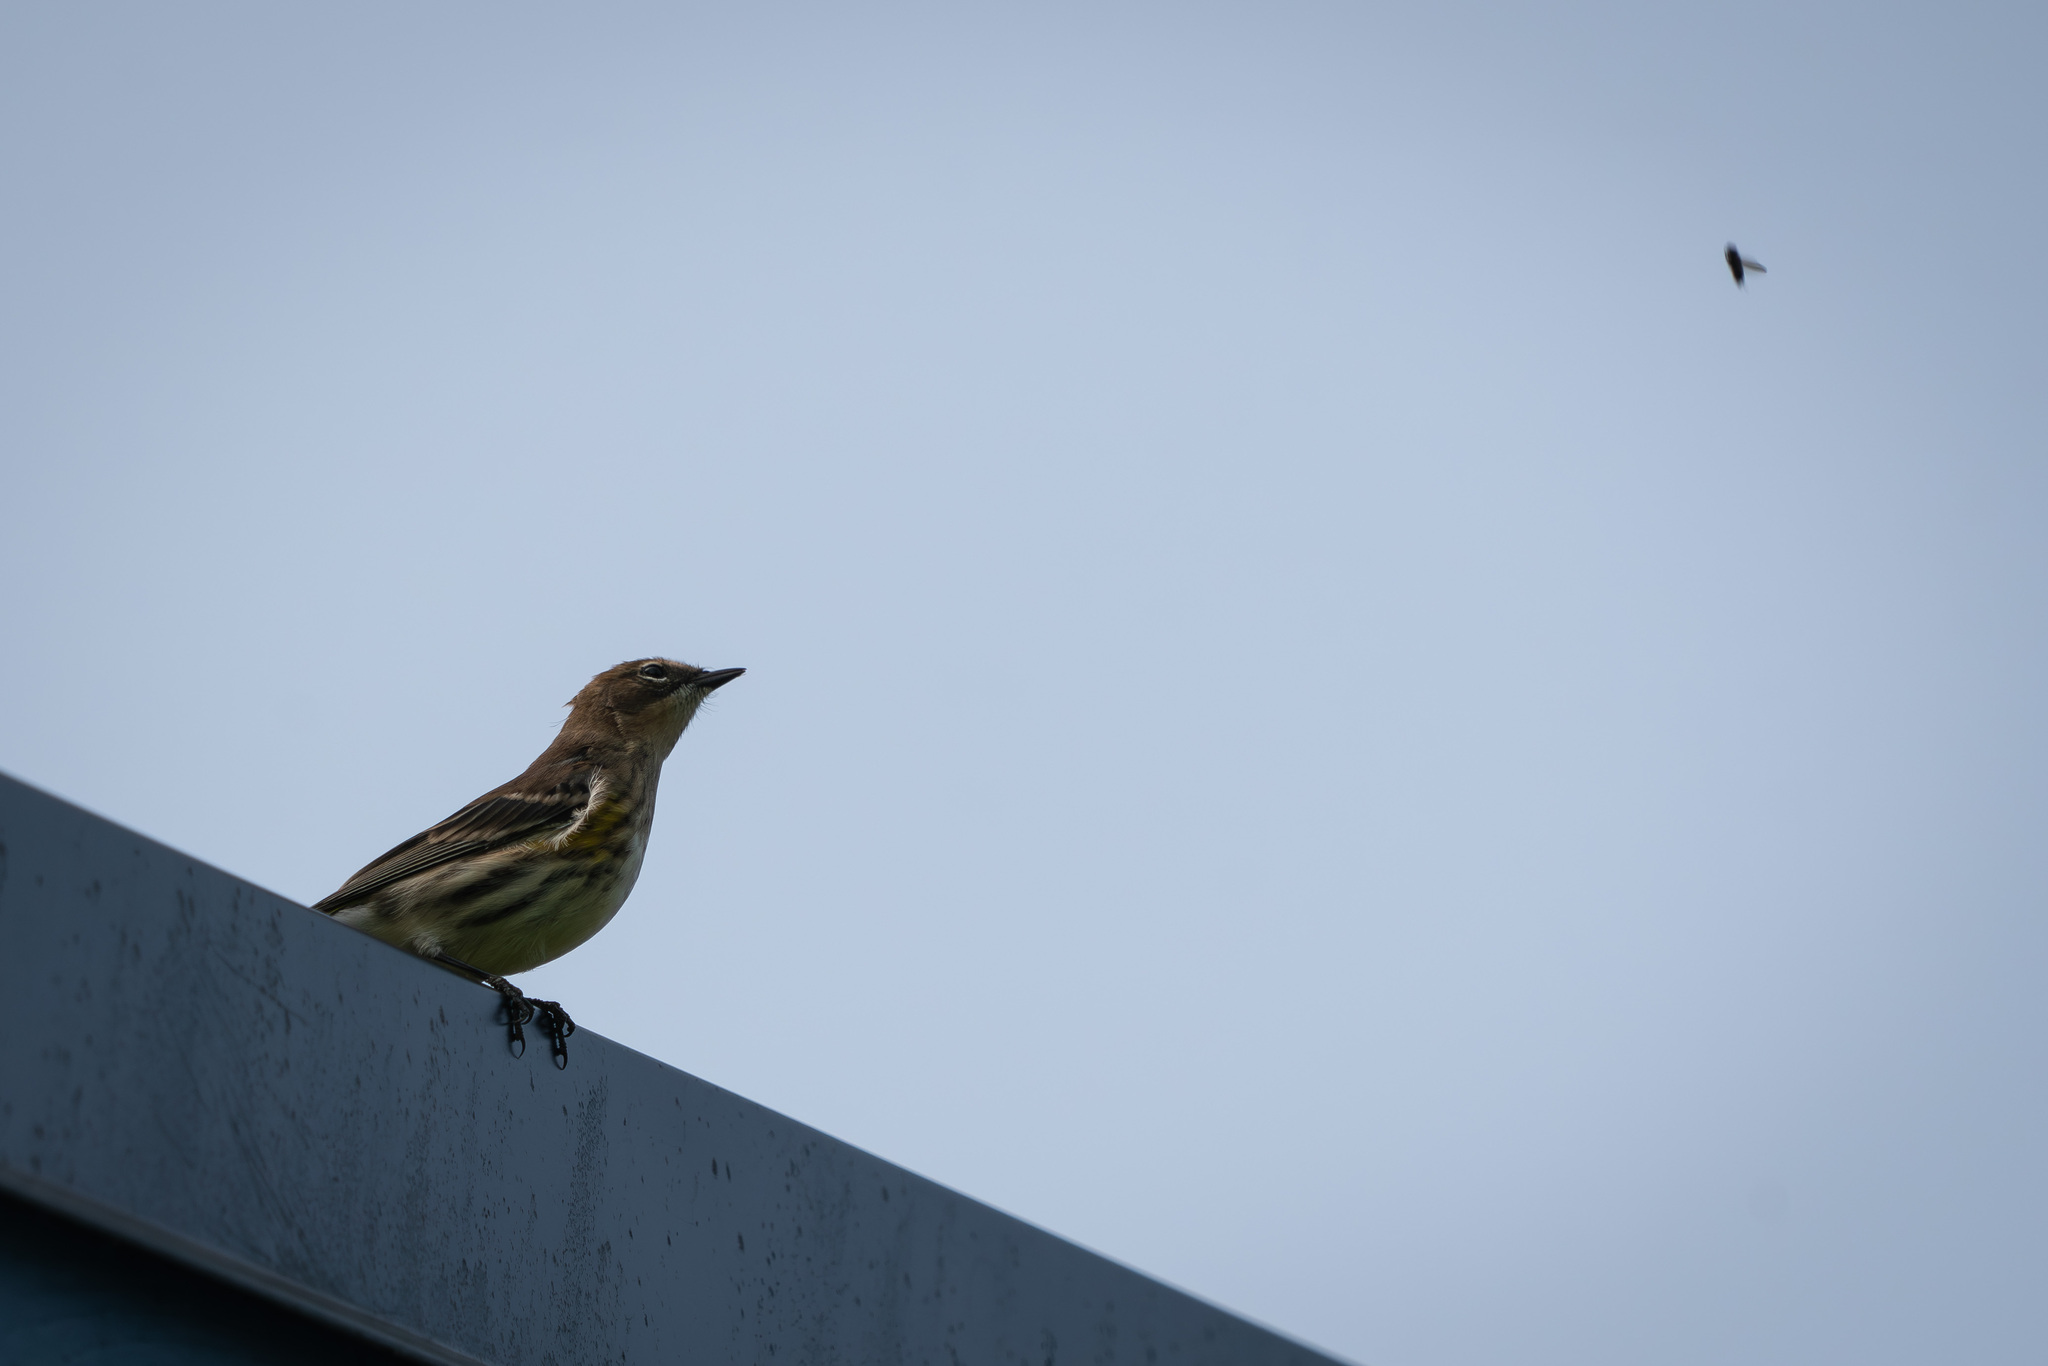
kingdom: Animalia
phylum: Chordata
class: Aves
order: Passeriformes
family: Parulidae
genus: Setophaga
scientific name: Setophaga coronata
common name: Myrtle warbler
